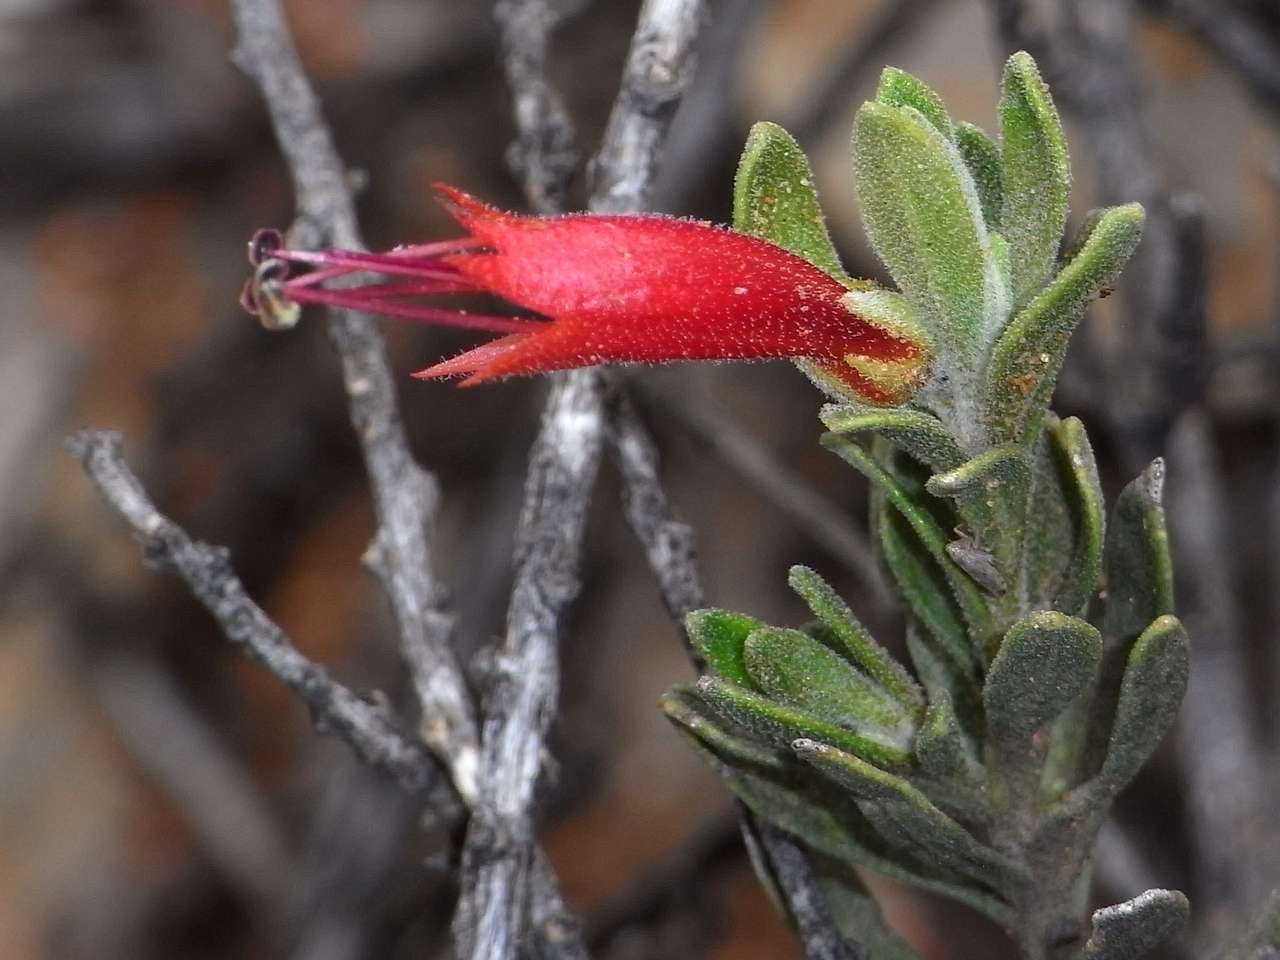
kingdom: Plantae
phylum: Tracheophyta
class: Magnoliopsida
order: Lamiales
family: Scrophulariaceae
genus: Eremophila
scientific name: Eremophila glabra
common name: Black-fuchsia
